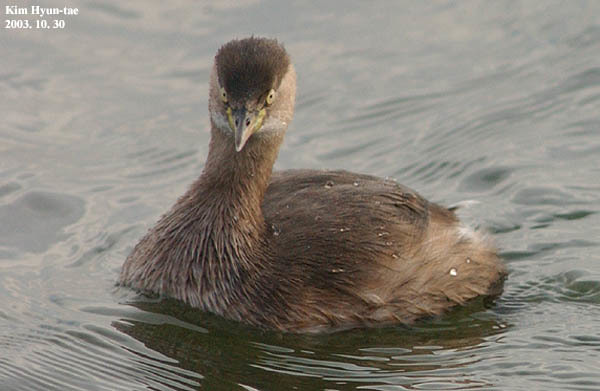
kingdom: Animalia
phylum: Chordata
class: Aves
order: Podicipediformes
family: Podicipedidae
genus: Tachybaptus
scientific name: Tachybaptus ruficollis
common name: Little grebe
